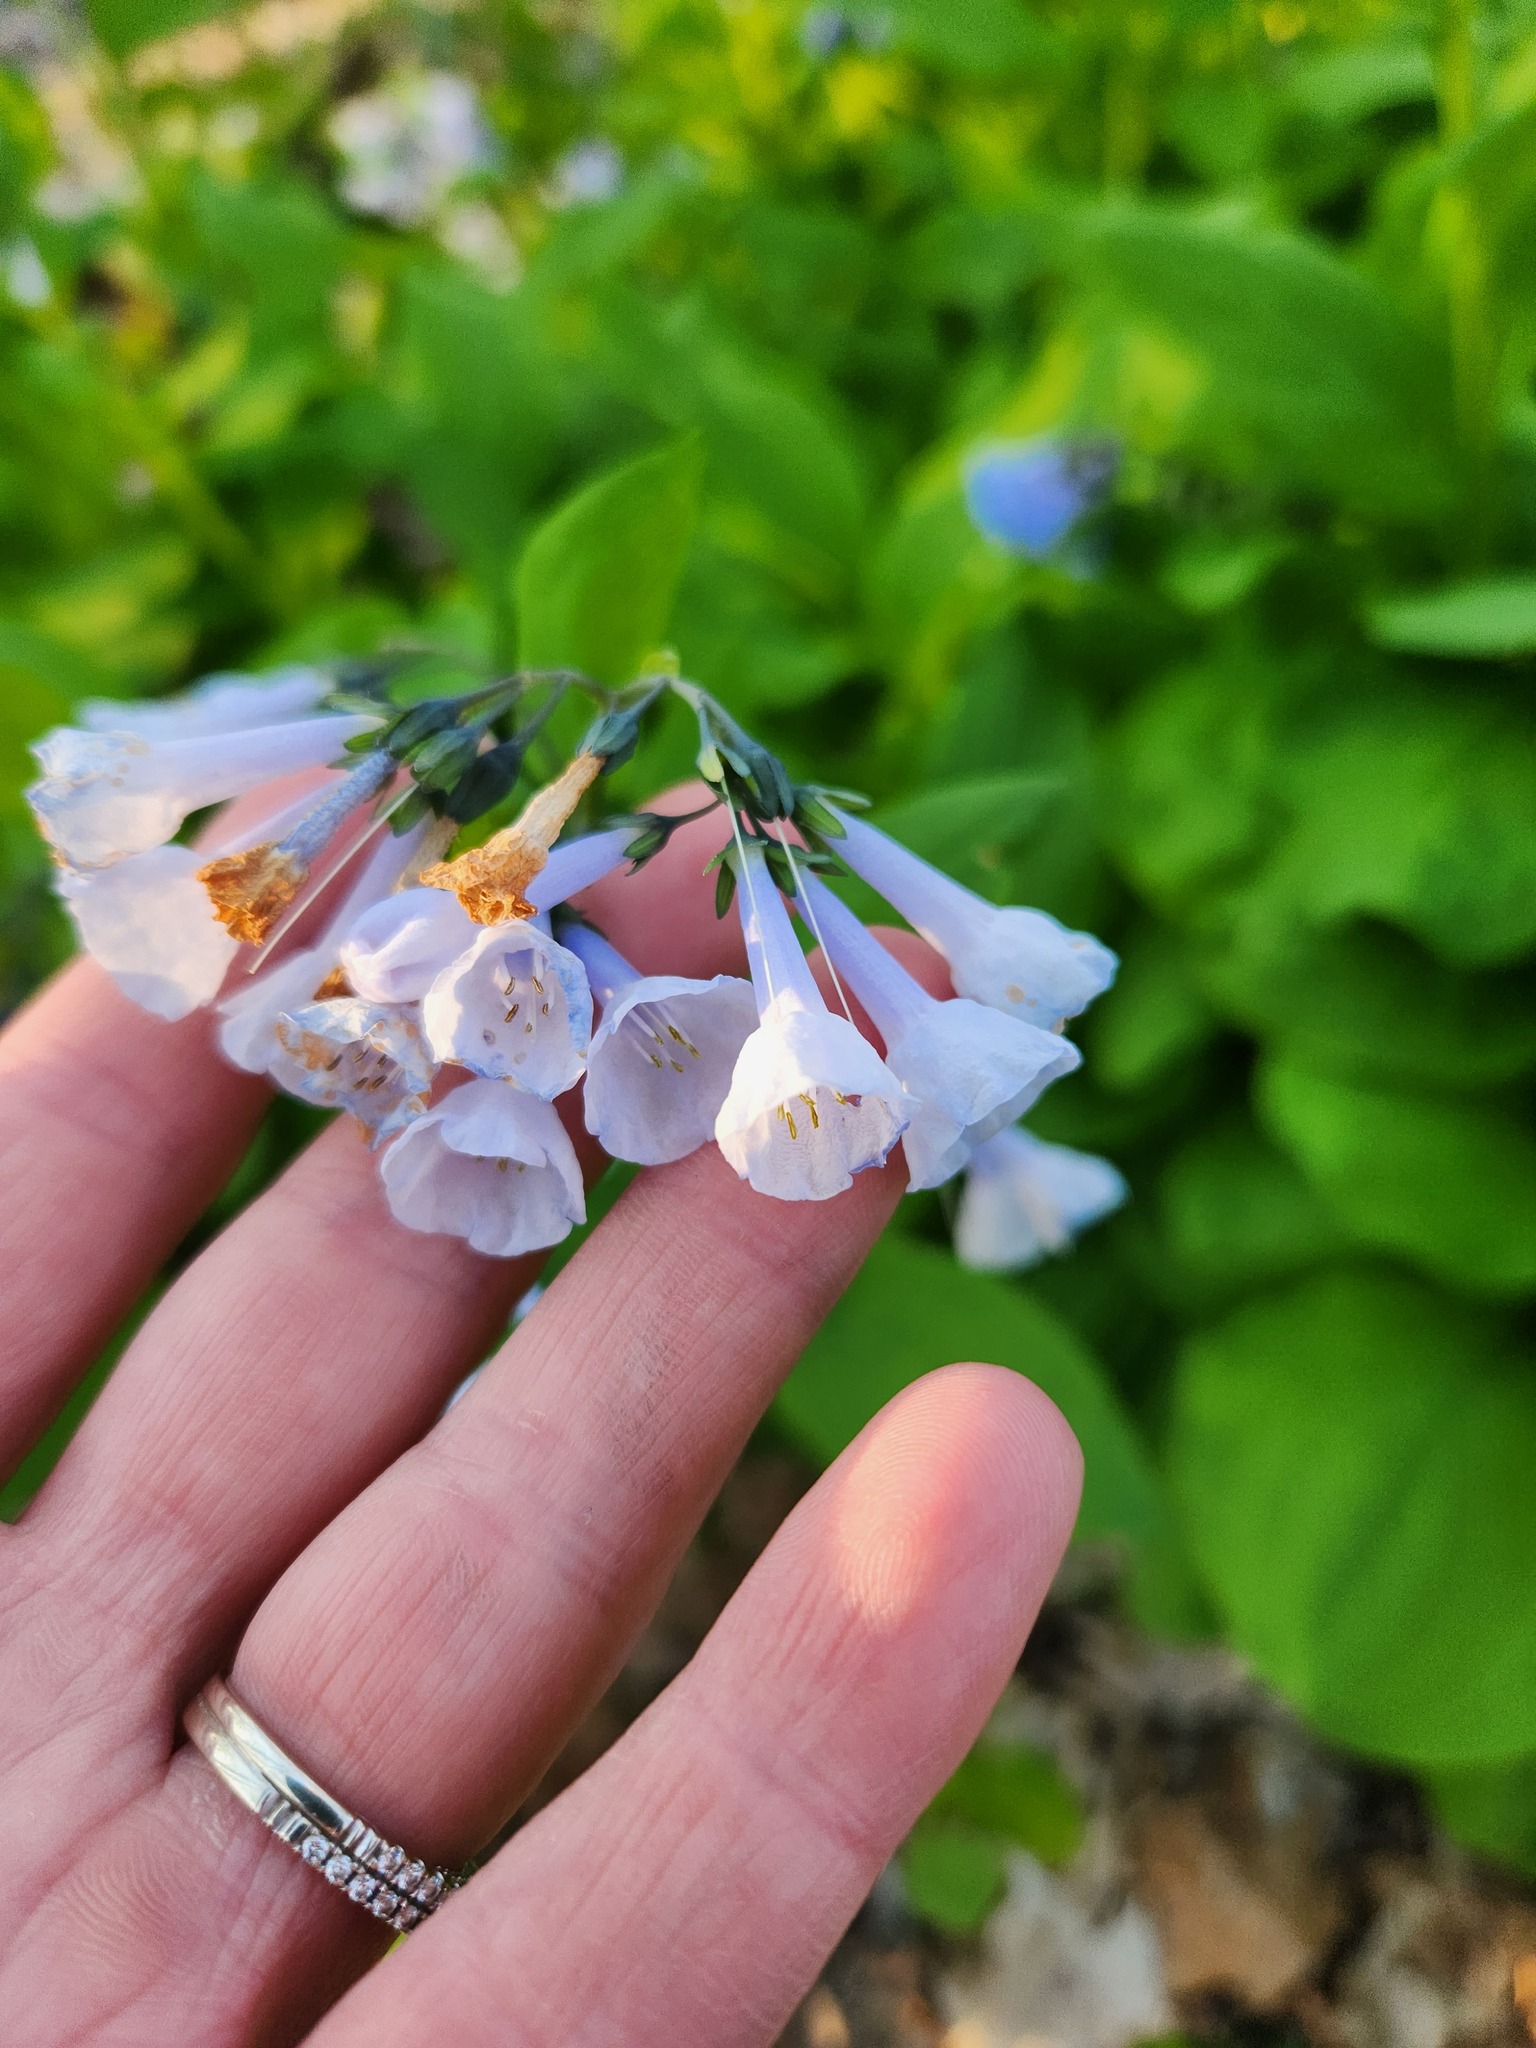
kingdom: Plantae
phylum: Tracheophyta
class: Magnoliopsida
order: Boraginales
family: Boraginaceae
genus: Mertensia
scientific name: Mertensia virginica
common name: Virginia bluebells
